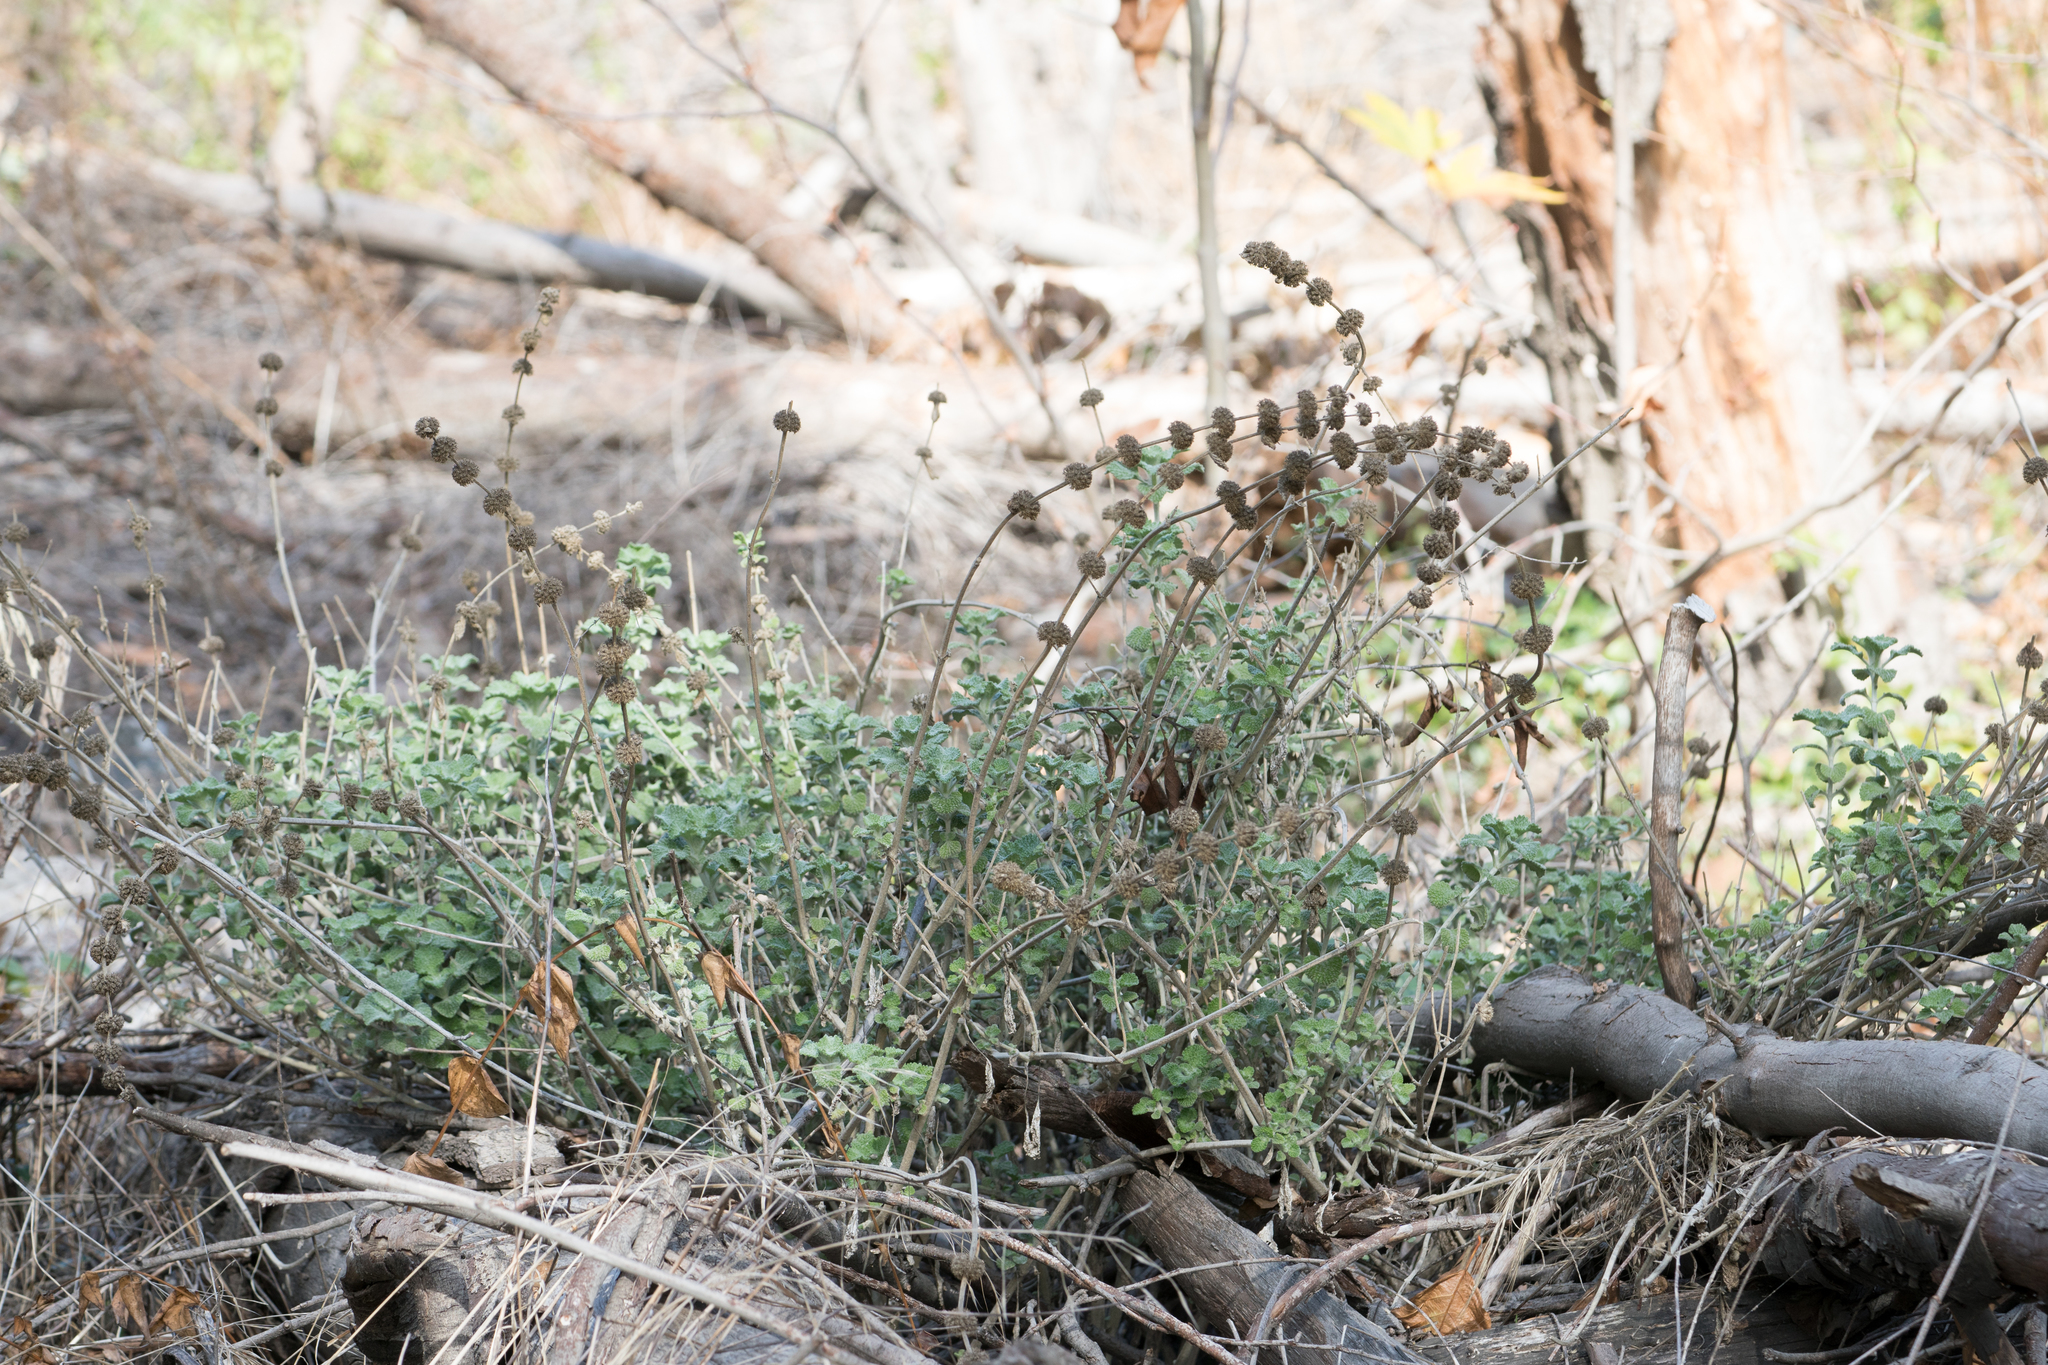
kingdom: Plantae
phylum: Tracheophyta
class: Magnoliopsida
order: Lamiales
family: Lamiaceae
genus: Marrubium
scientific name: Marrubium vulgare
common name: Horehound
